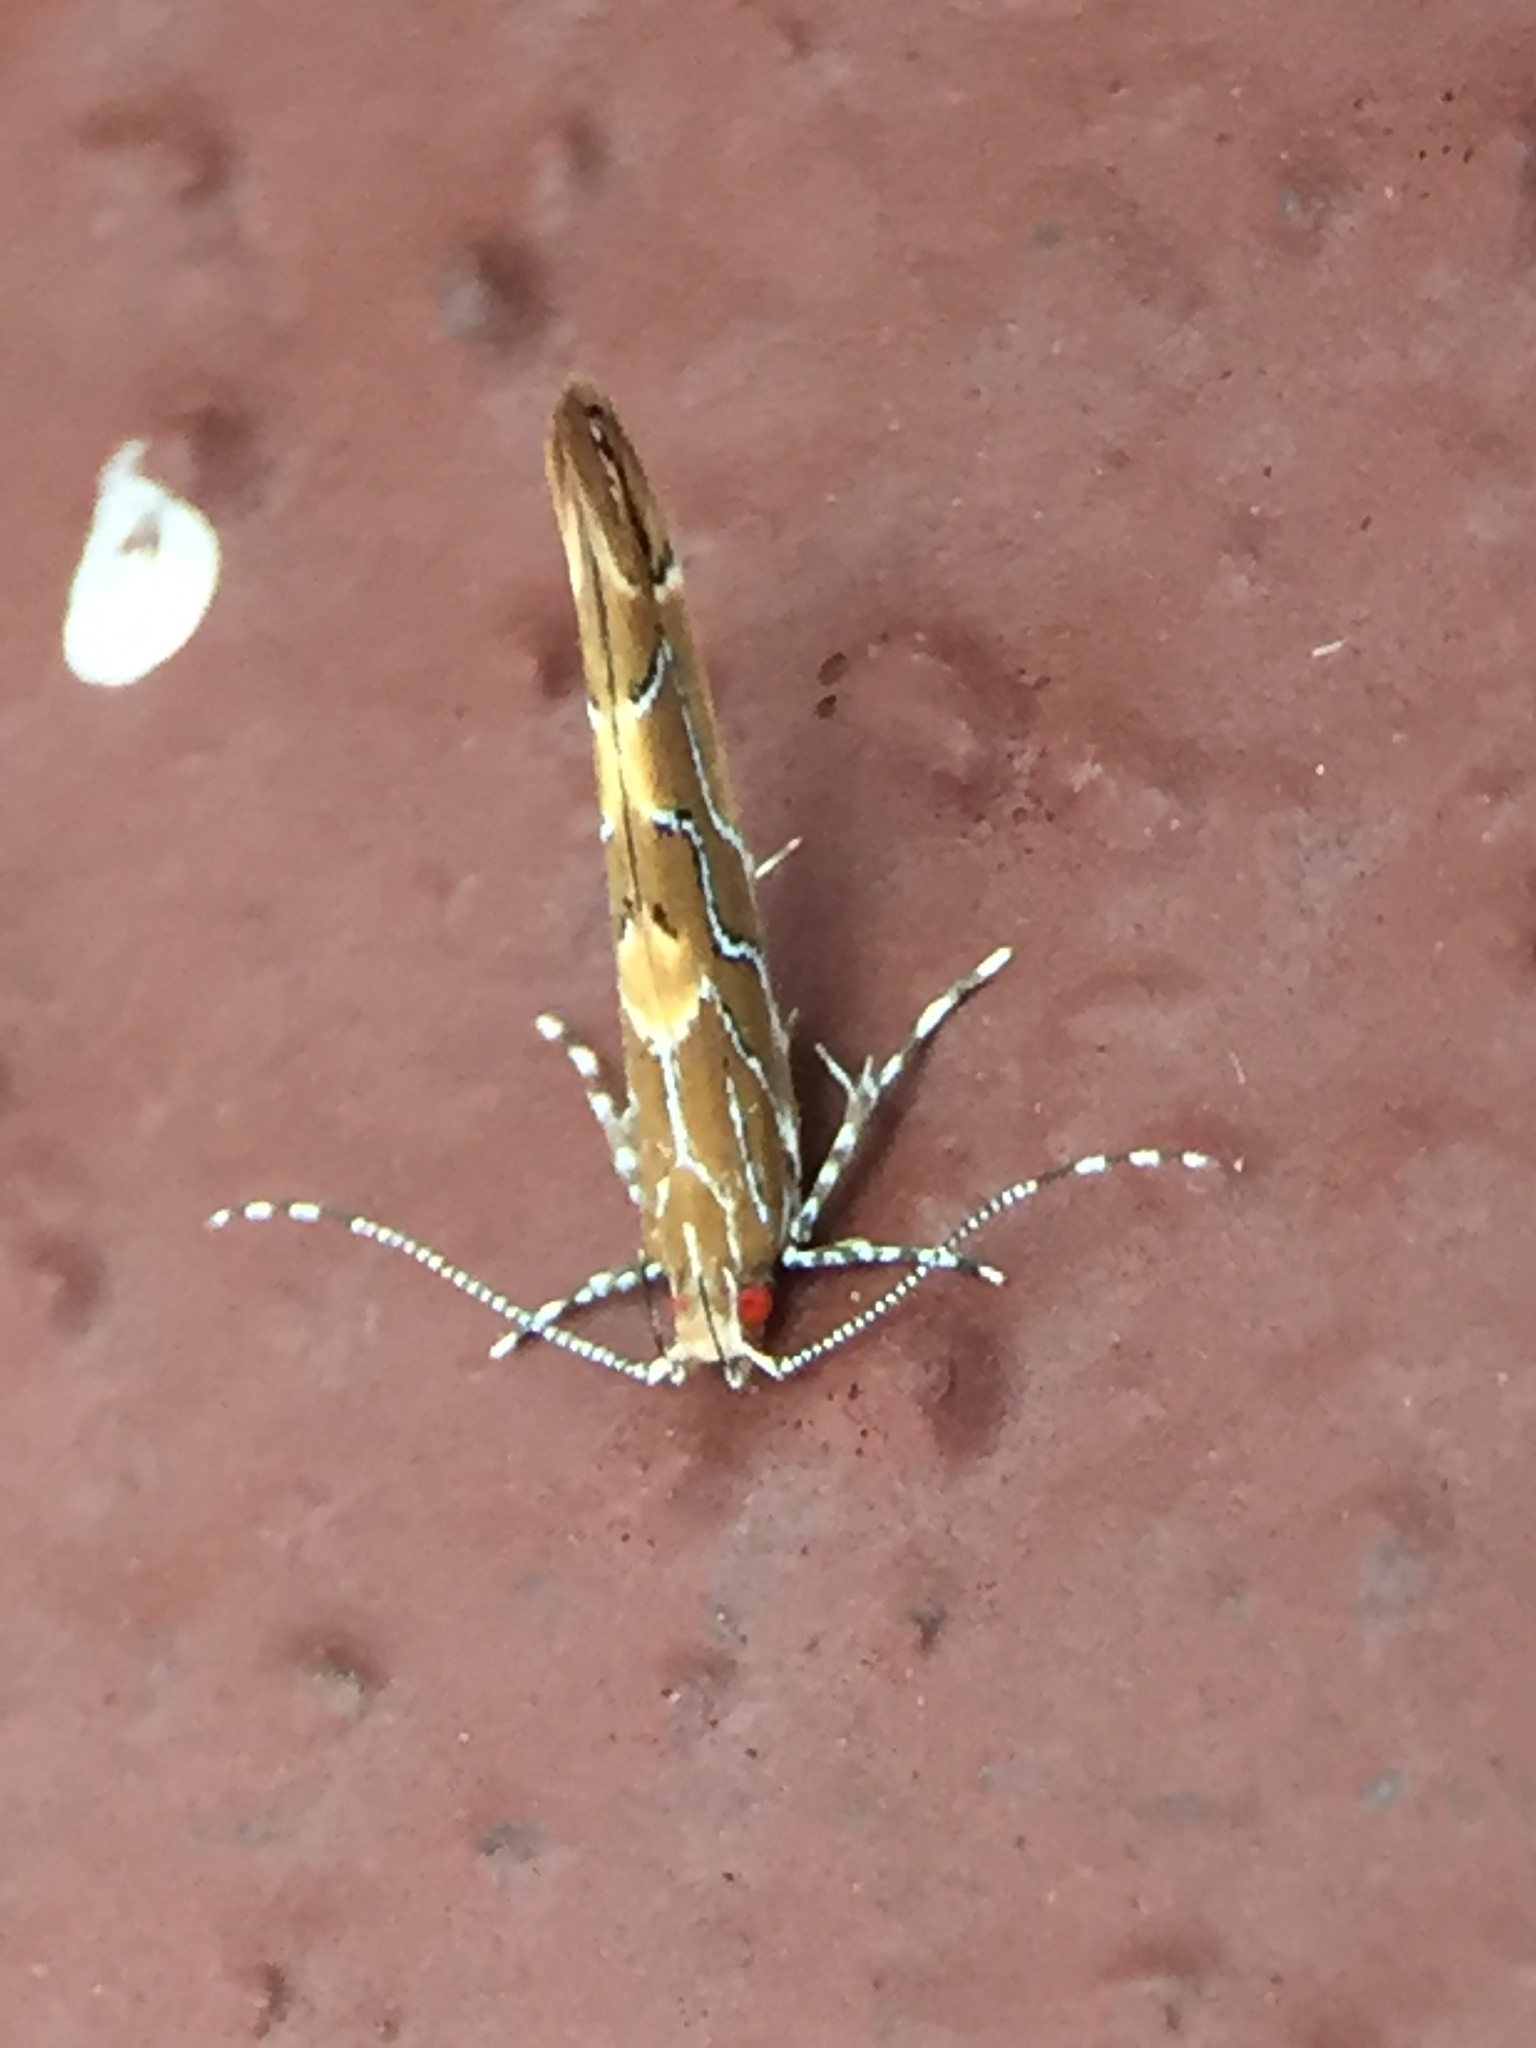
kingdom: Animalia
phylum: Arthropoda
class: Insecta
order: Lepidoptera
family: Cosmopterigidae
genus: Pyroderces
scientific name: Pyroderces apparitella
